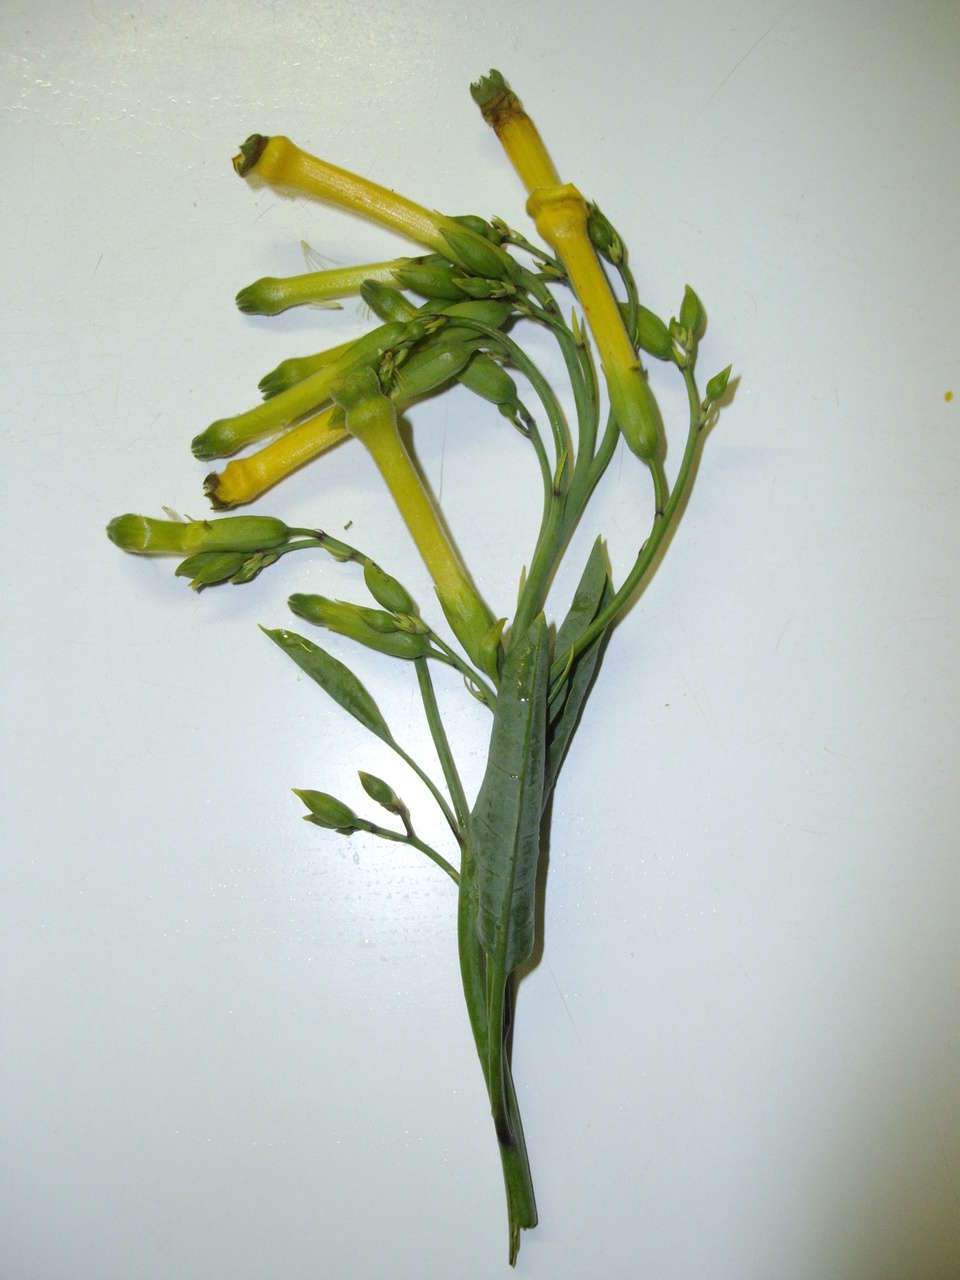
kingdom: Plantae
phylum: Tracheophyta
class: Magnoliopsida
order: Solanales
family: Solanaceae
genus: Nicotiana
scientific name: Nicotiana glauca
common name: Tree tobacco
